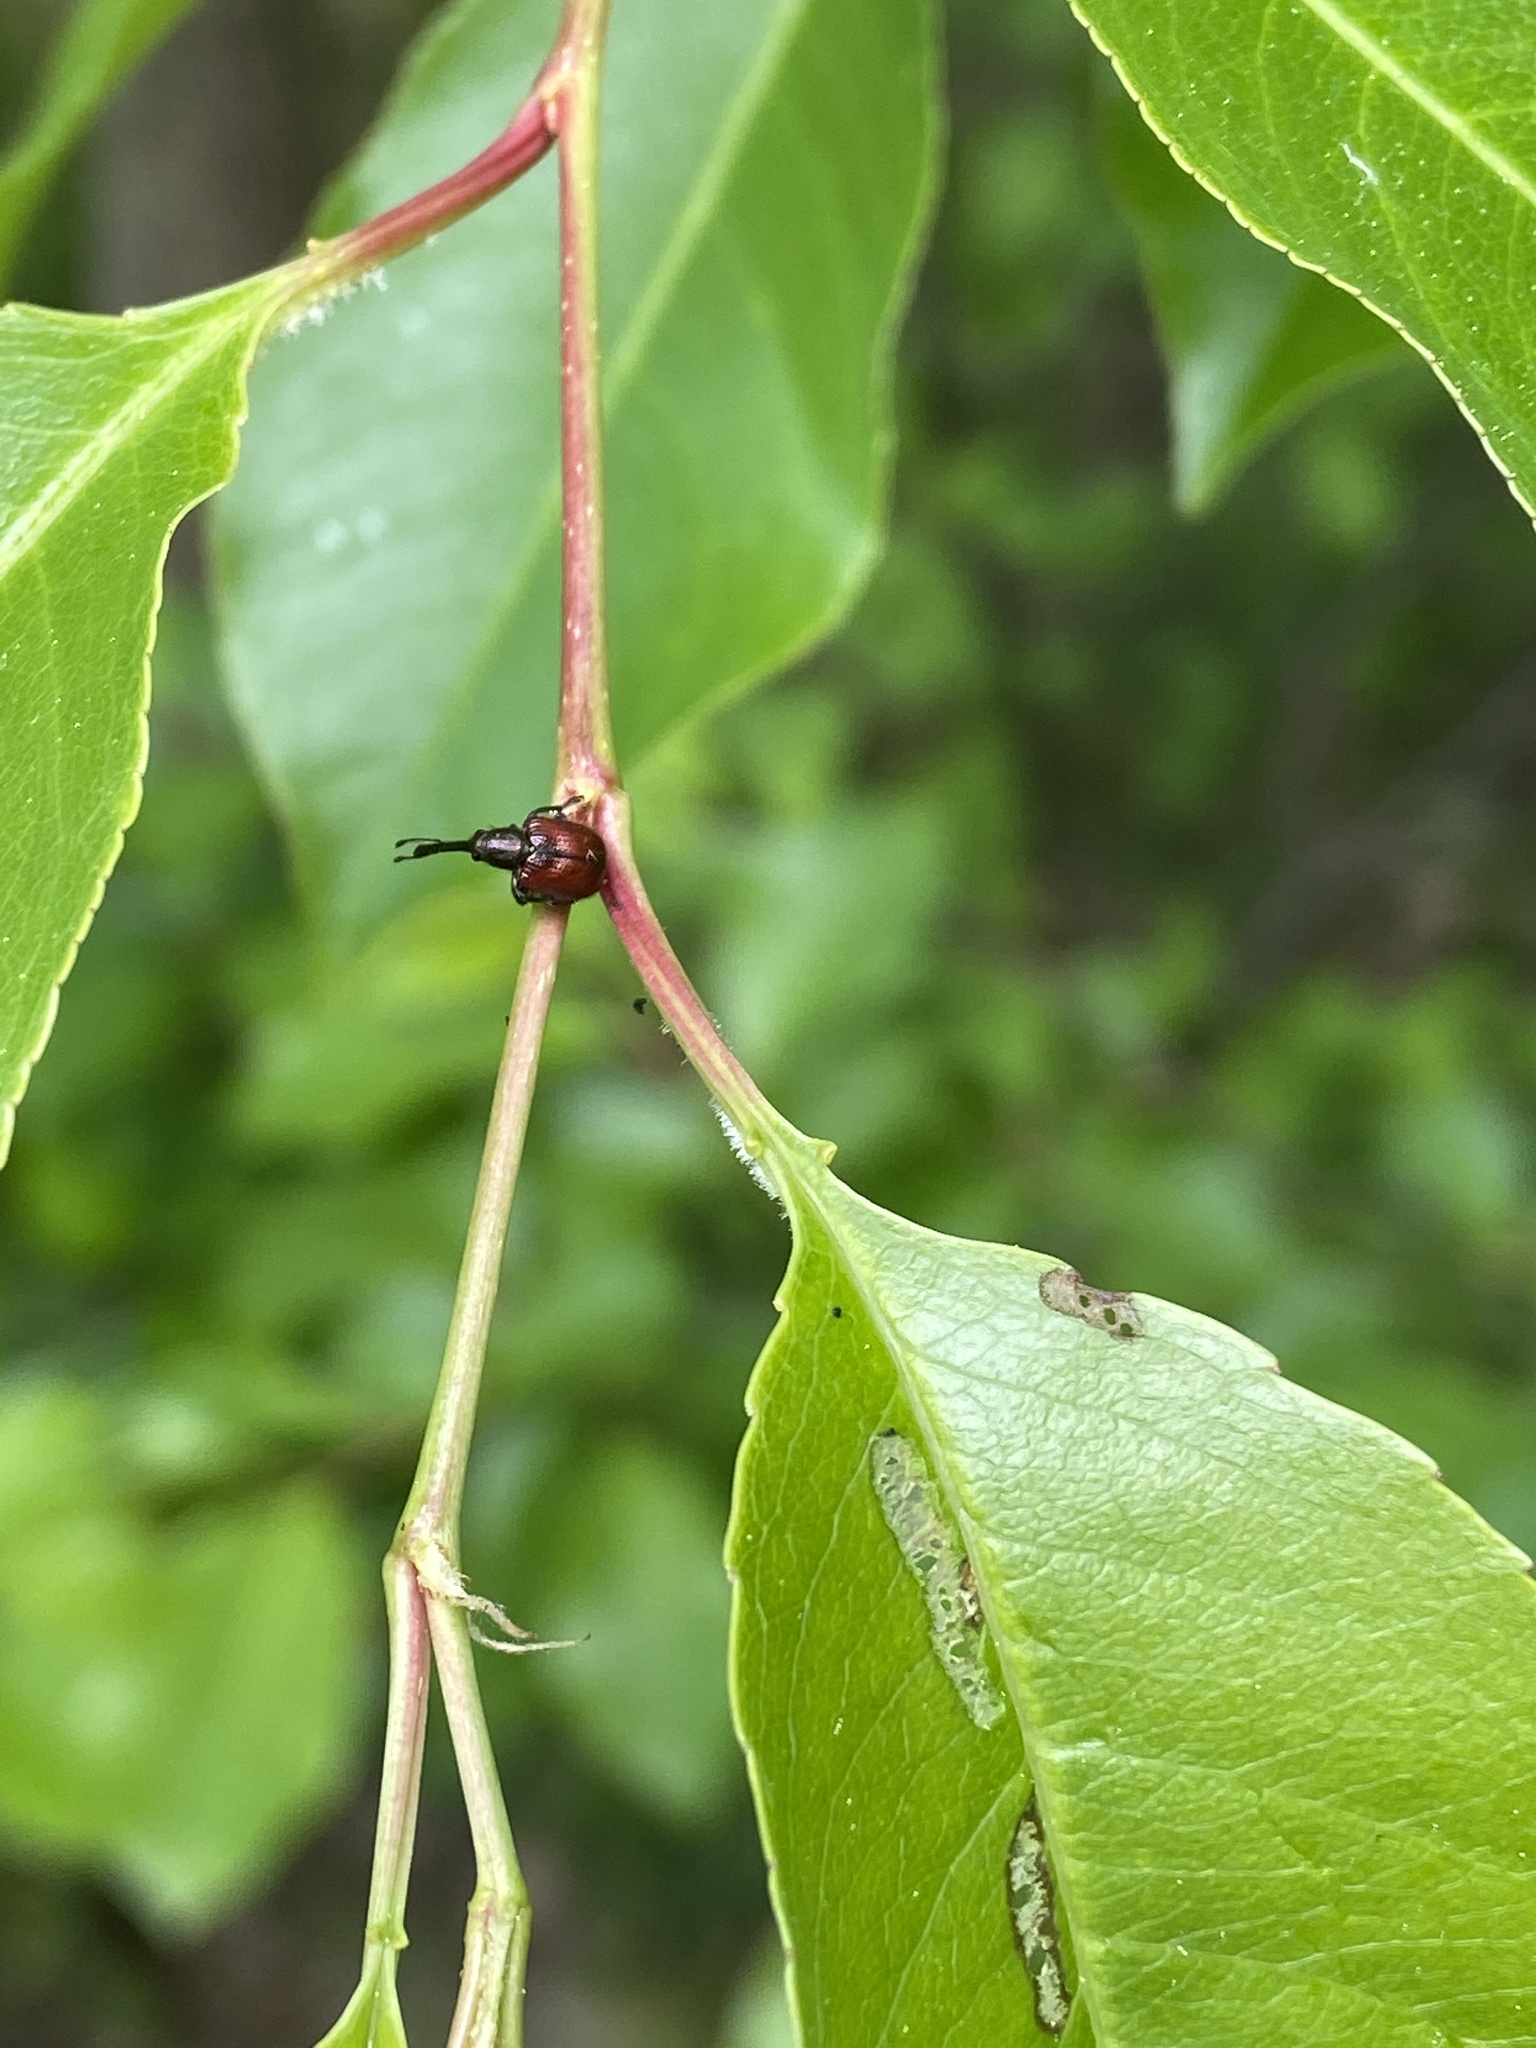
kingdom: Animalia
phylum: Arthropoda
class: Insecta
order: Coleoptera
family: Rhynchitidae
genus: Tatianaerhynchites
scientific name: Tatianaerhynchites aequatus
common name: Apple fruit rhynchites
